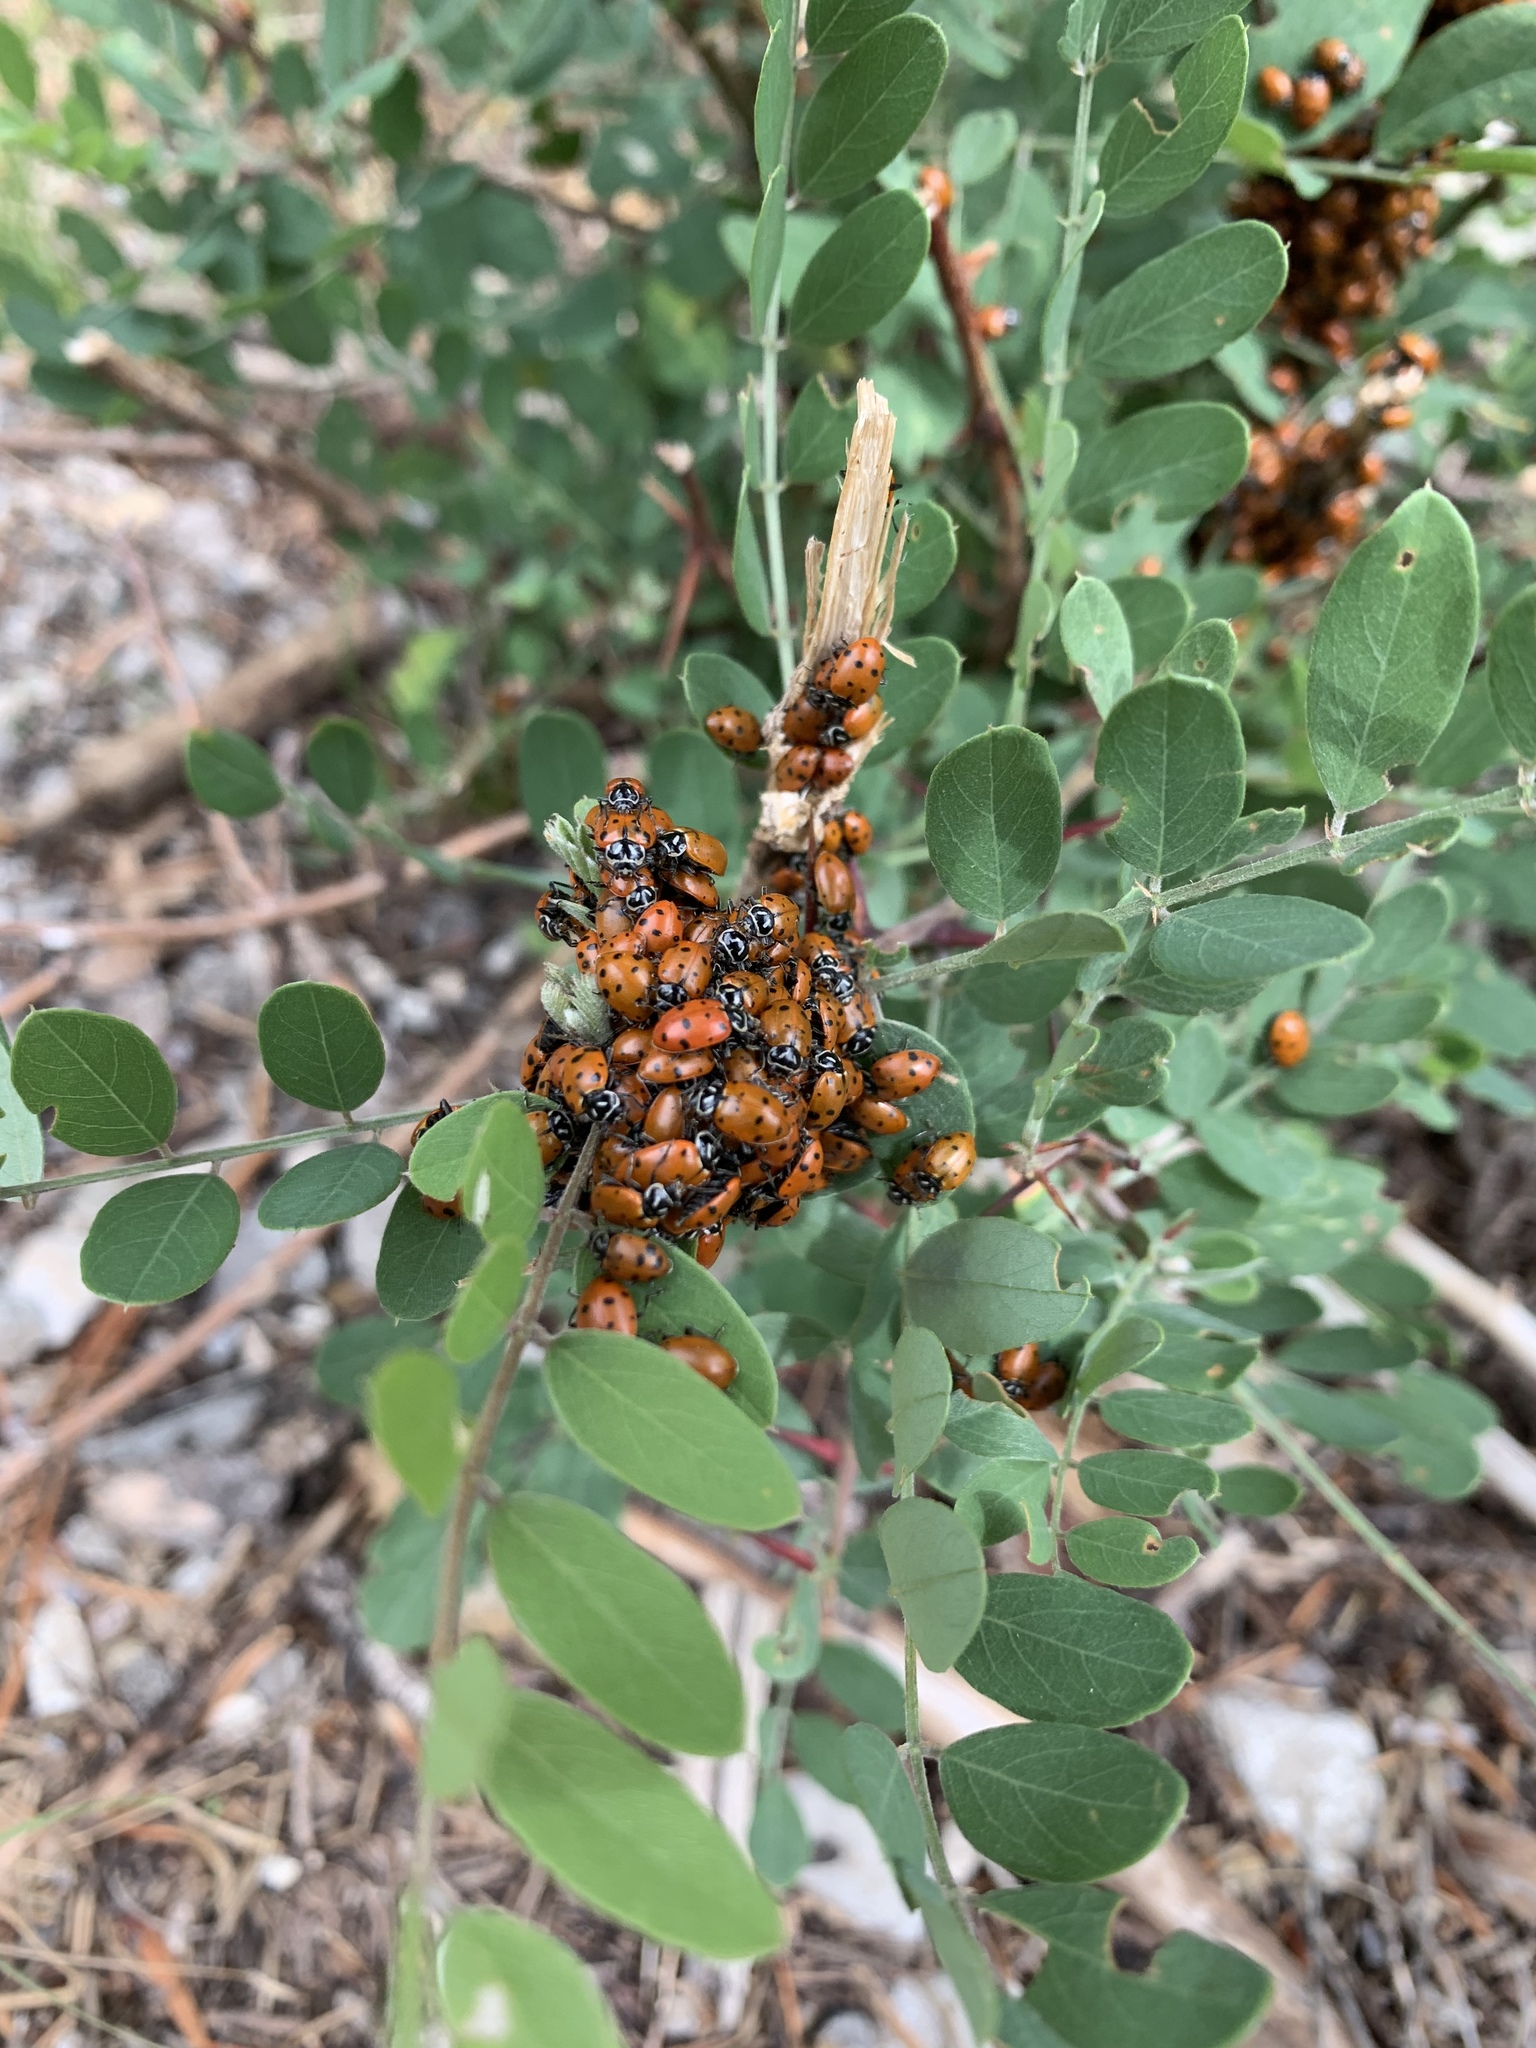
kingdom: Animalia
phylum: Arthropoda
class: Insecta
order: Coleoptera
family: Coccinellidae
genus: Hippodamia
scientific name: Hippodamia convergens
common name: Convergent lady beetle
